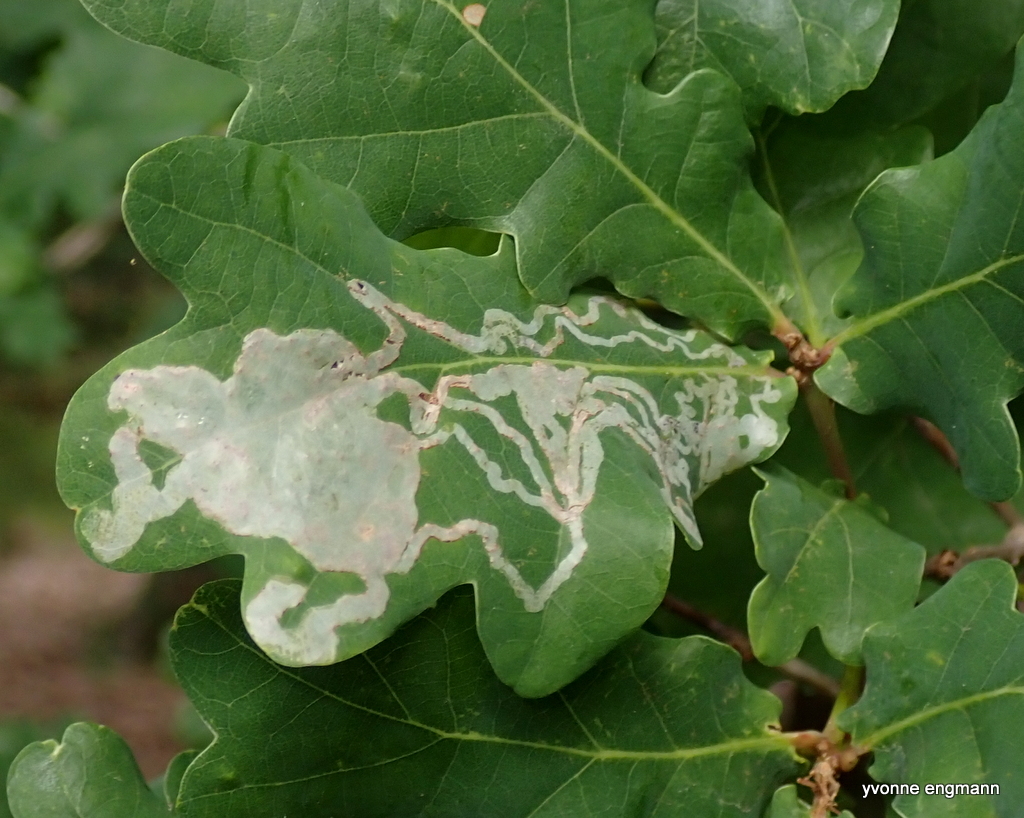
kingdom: Animalia
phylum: Arthropoda
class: Insecta
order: Lepidoptera
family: Gracillariidae
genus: Acrocercops
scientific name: Acrocercops brongniardella
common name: Brown oak slender
